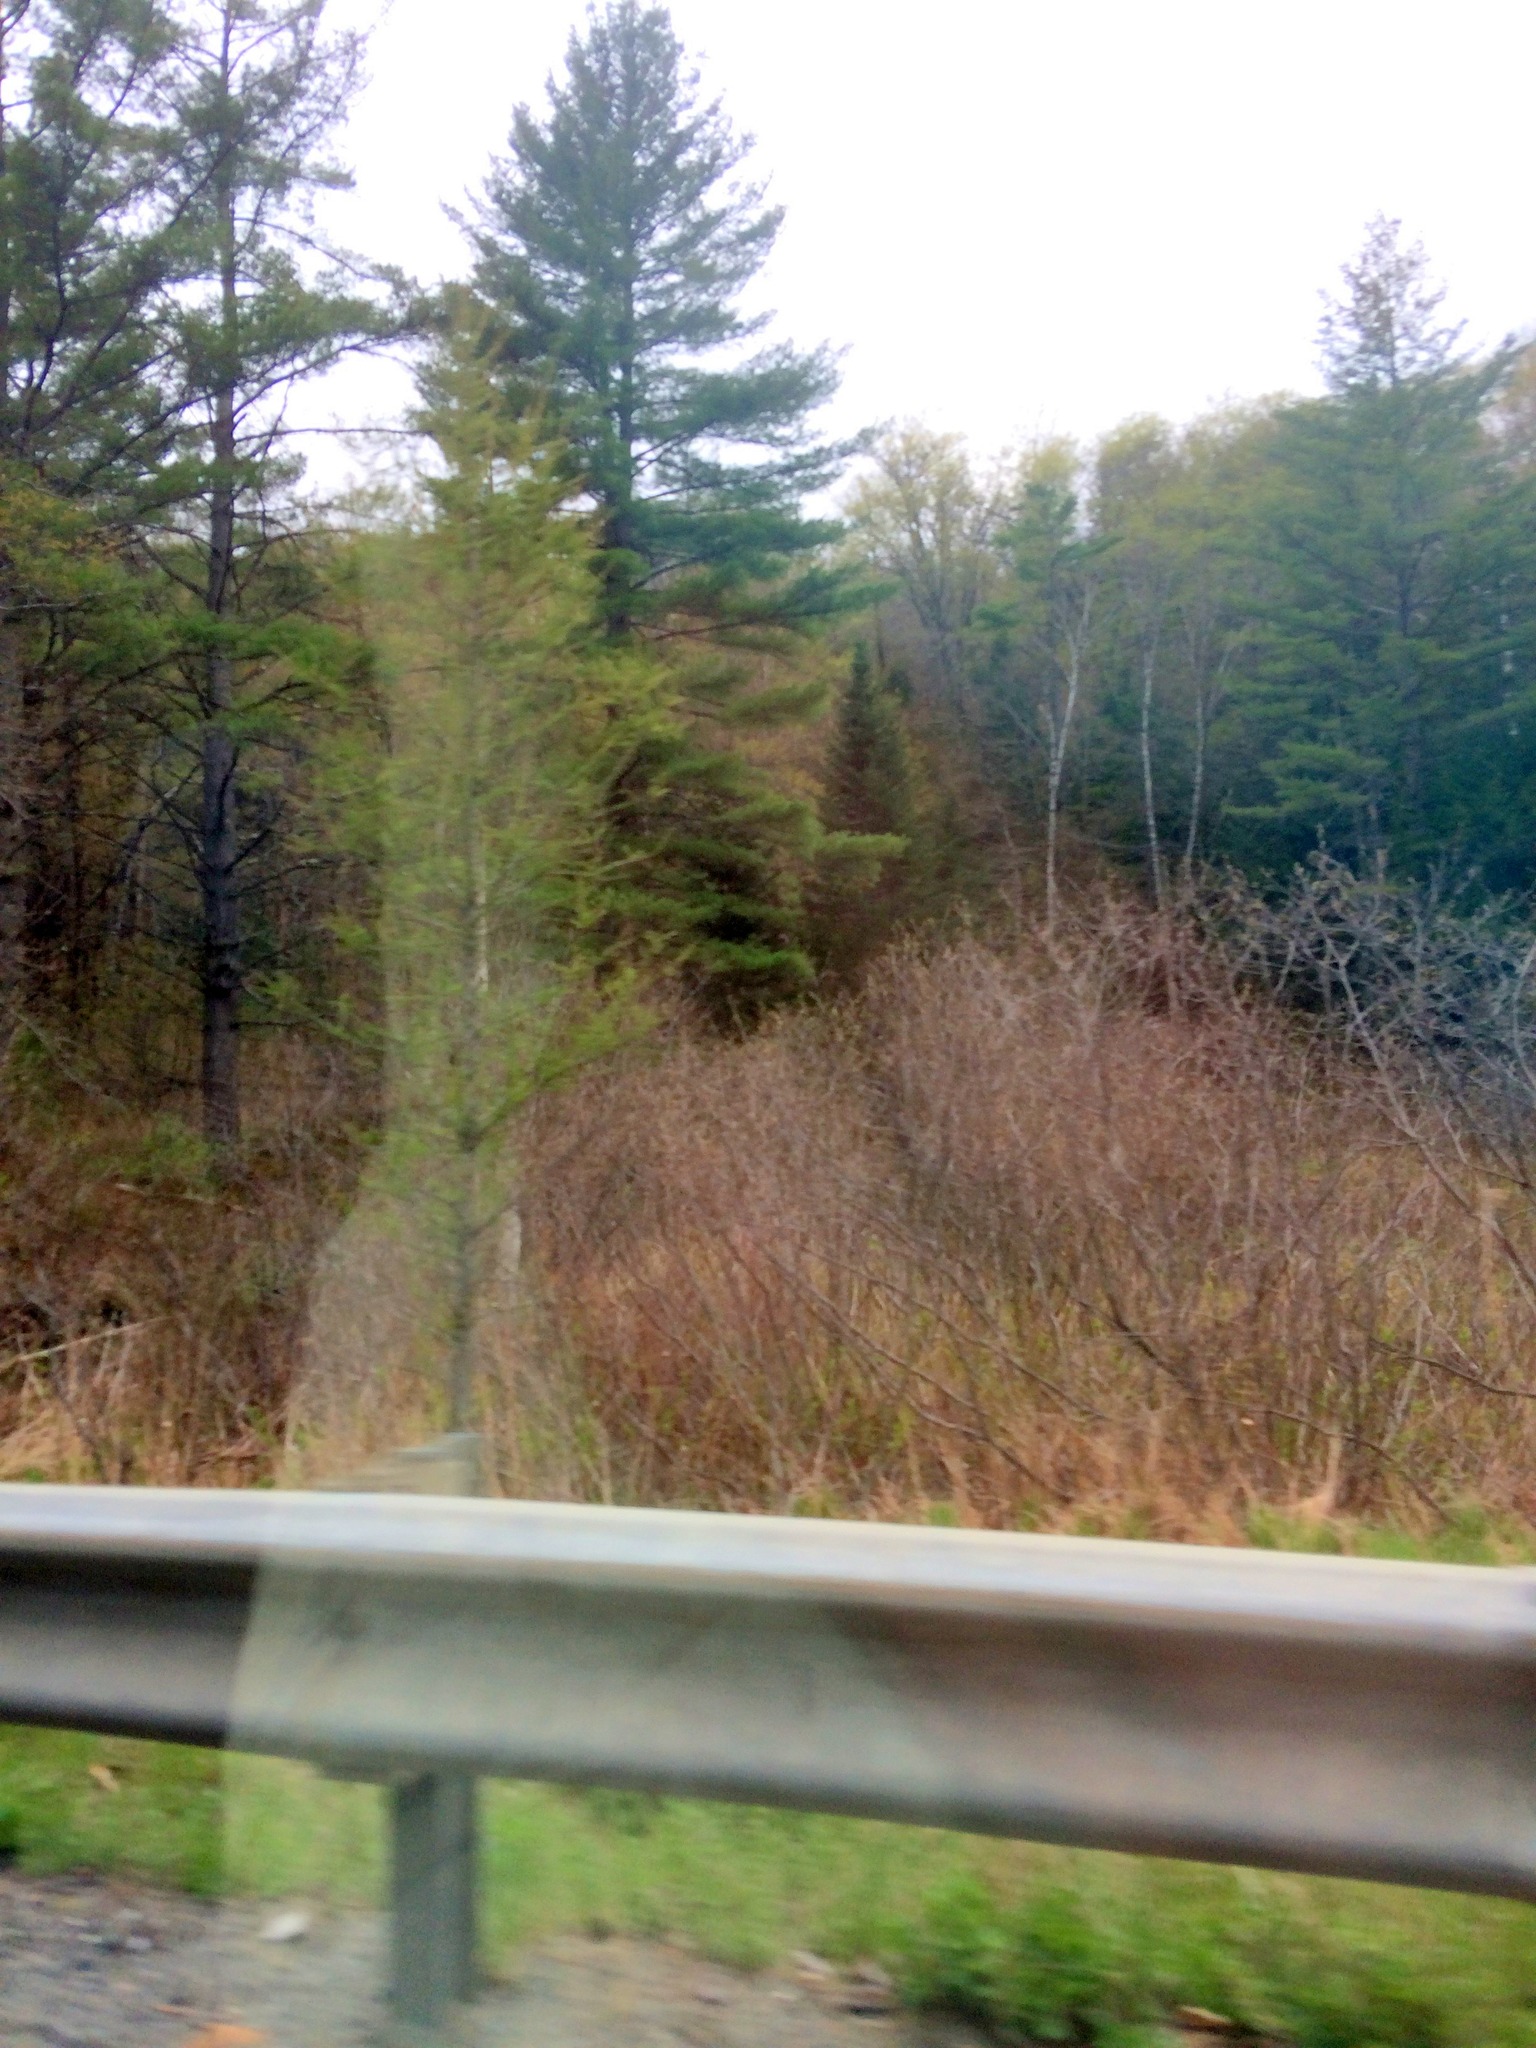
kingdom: Plantae
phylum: Tracheophyta
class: Pinopsida
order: Pinales
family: Pinaceae
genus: Larix
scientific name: Larix laricina
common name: American larch
